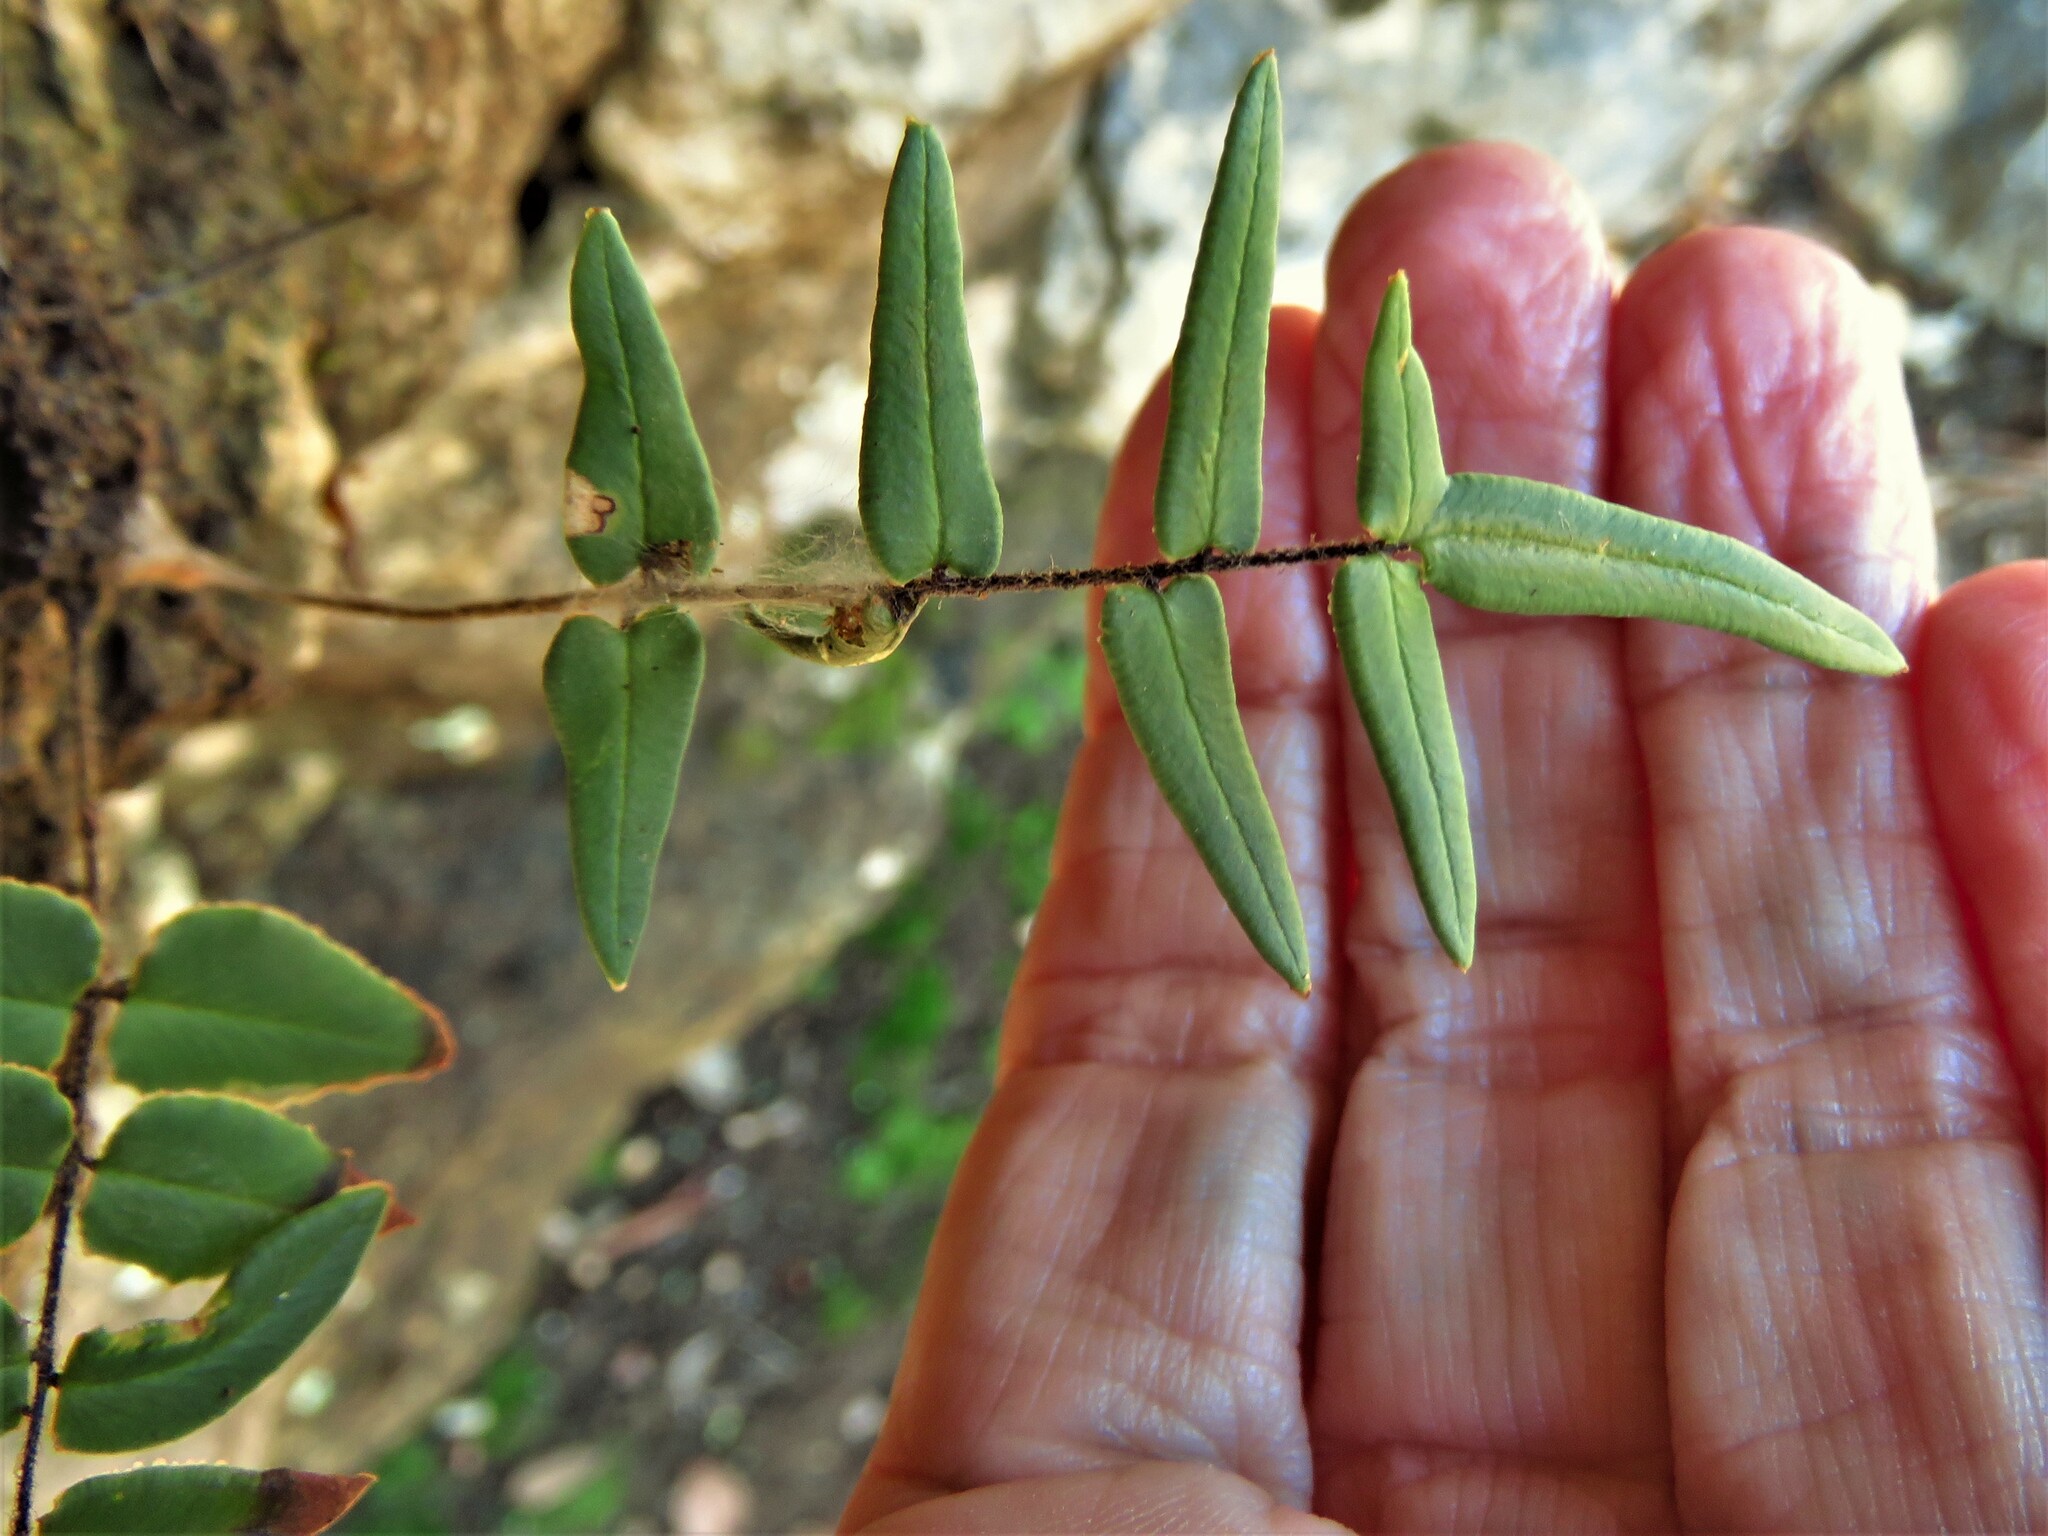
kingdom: Plantae
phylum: Tracheophyta
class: Polypodiopsida
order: Polypodiales
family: Pteridaceae
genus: Pellaea
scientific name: Pellaea atropurpurea
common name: Hairy cliffbrake
